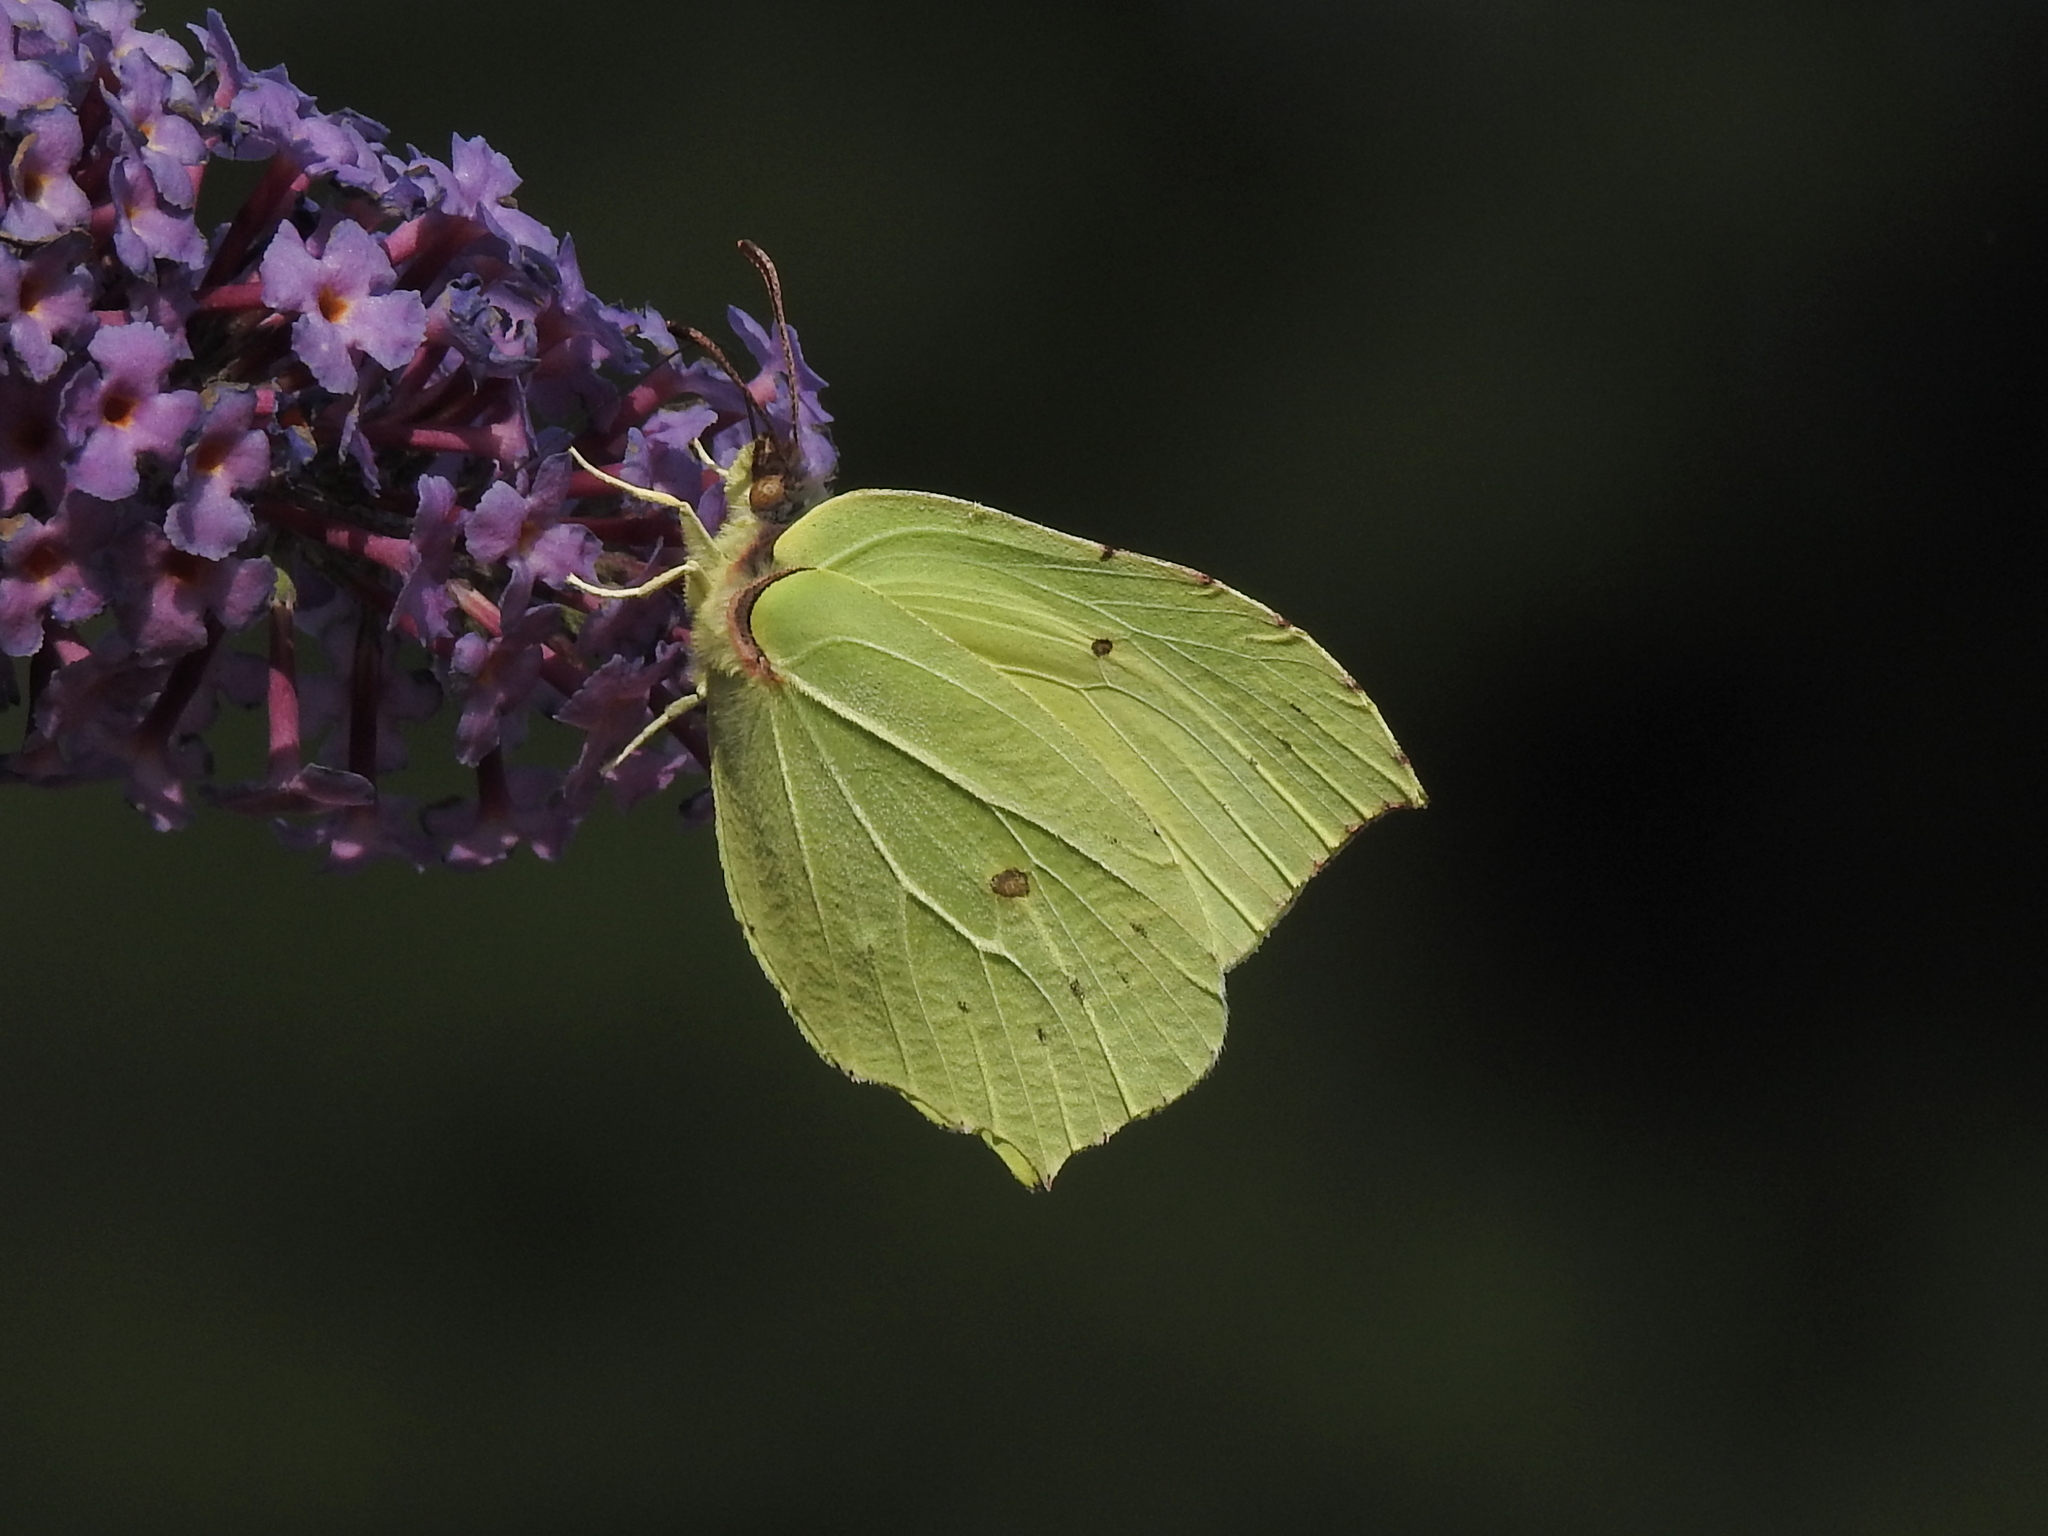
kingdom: Animalia
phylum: Arthropoda
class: Insecta
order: Lepidoptera
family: Pieridae
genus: Gonepteryx
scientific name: Gonepteryx rhamni
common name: Brimstone
